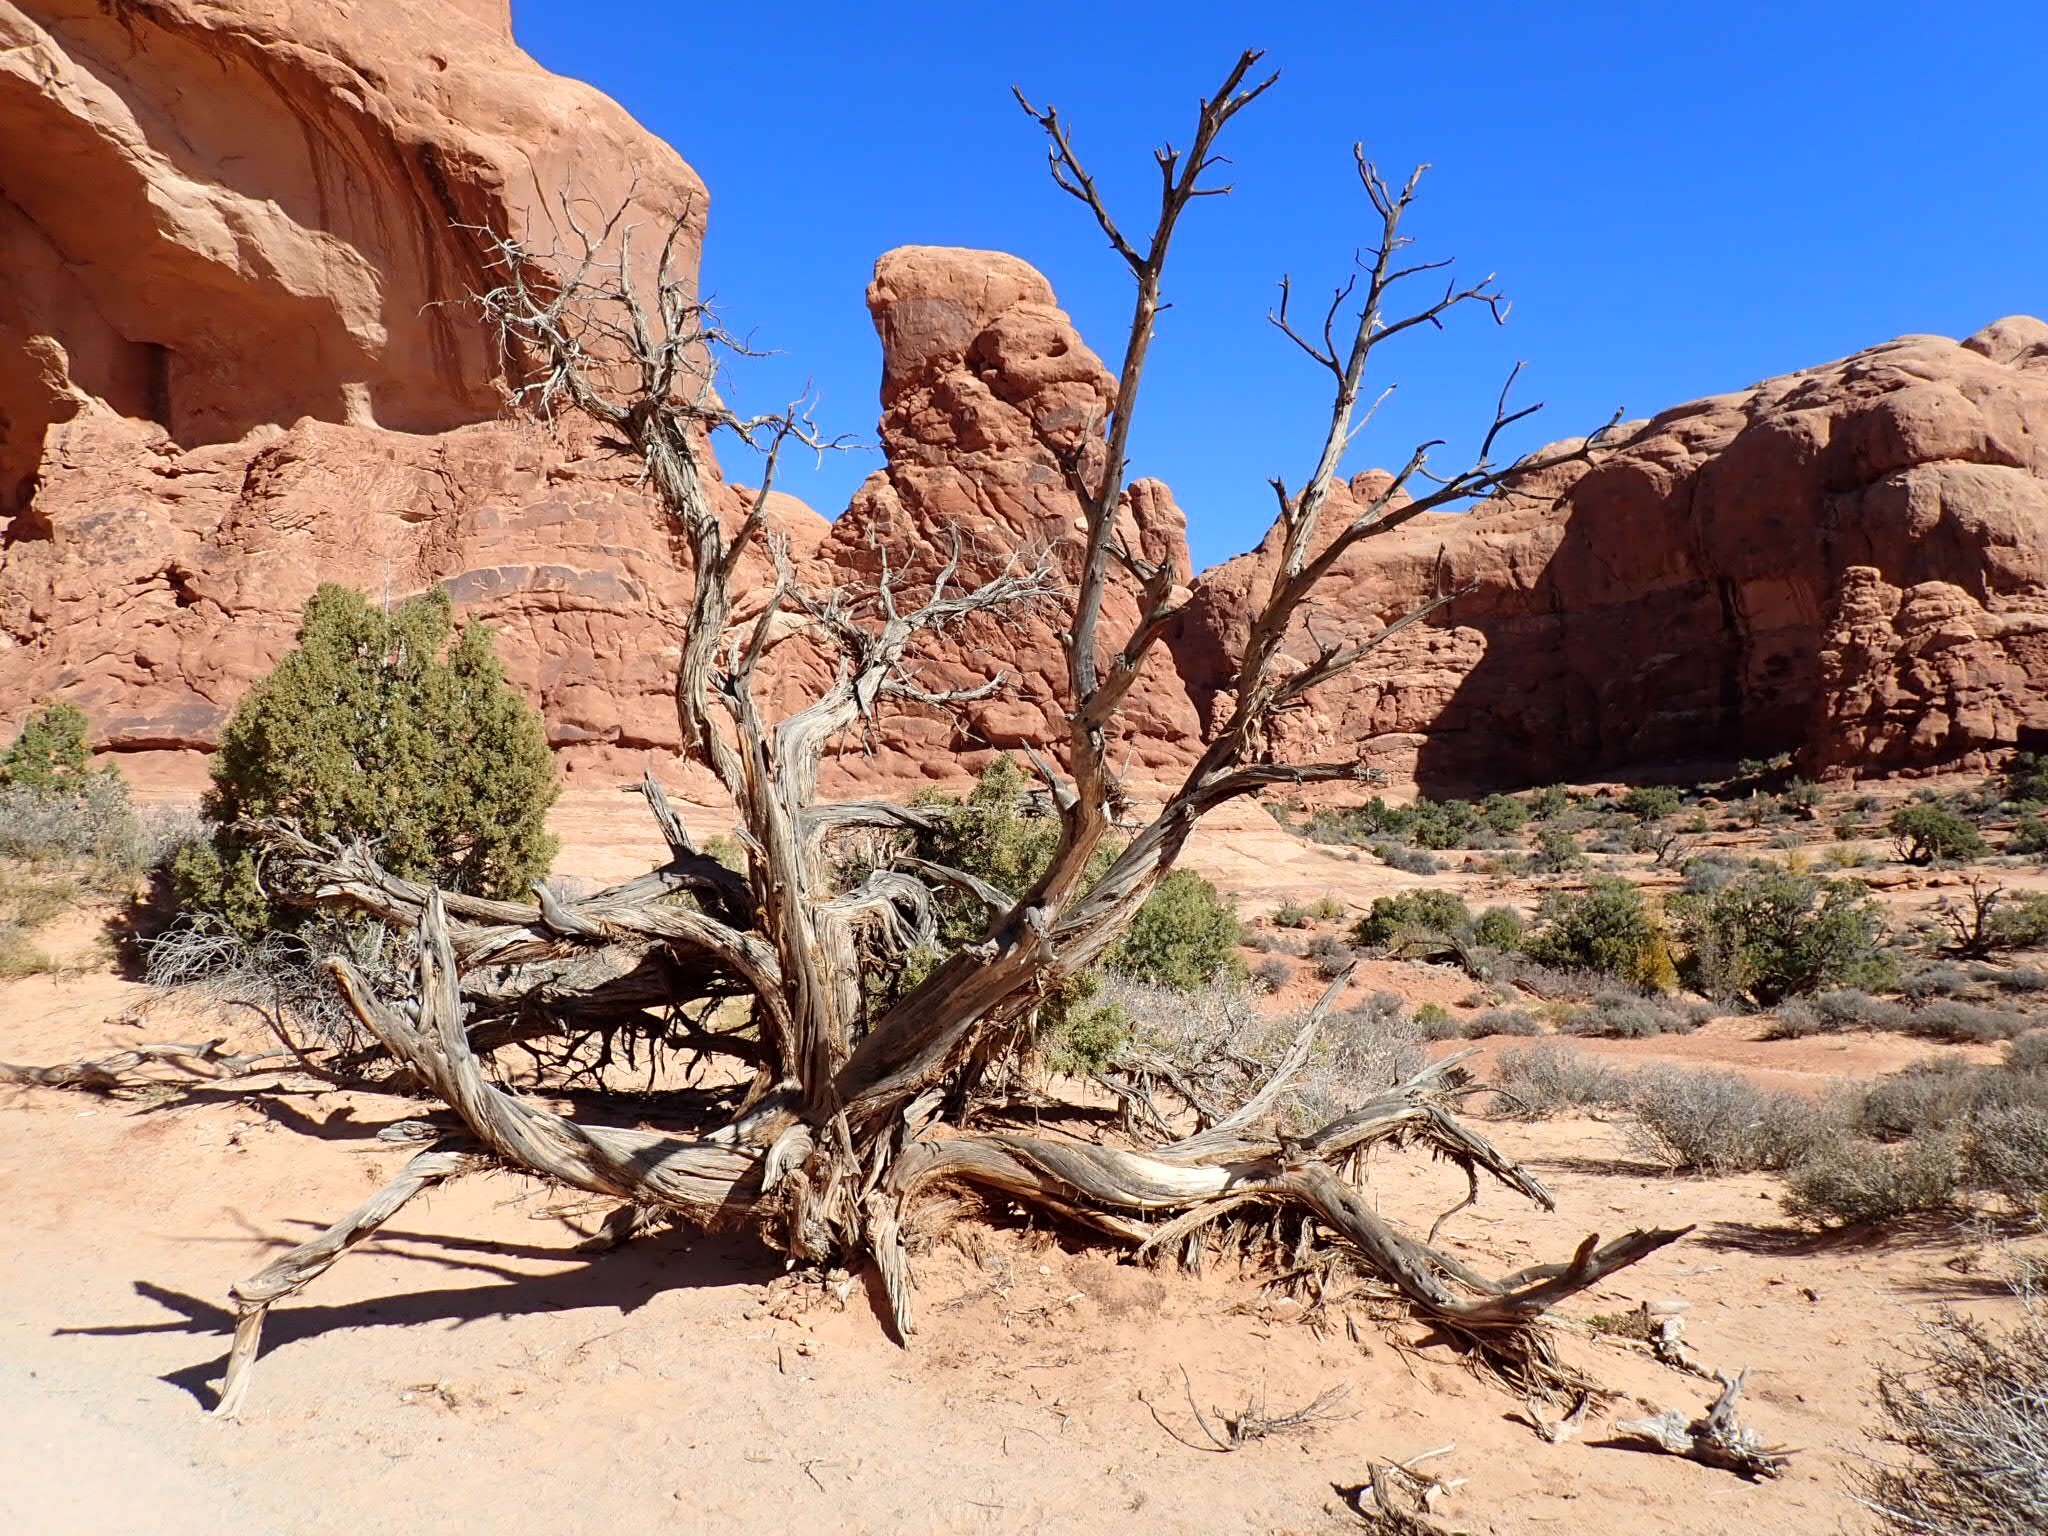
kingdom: Plantae
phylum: Tracheophyta
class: Pinopsida
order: Pinales
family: Cupressaceae
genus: Juniperus
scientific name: Juniperus osteosperma
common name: Utah juniper
